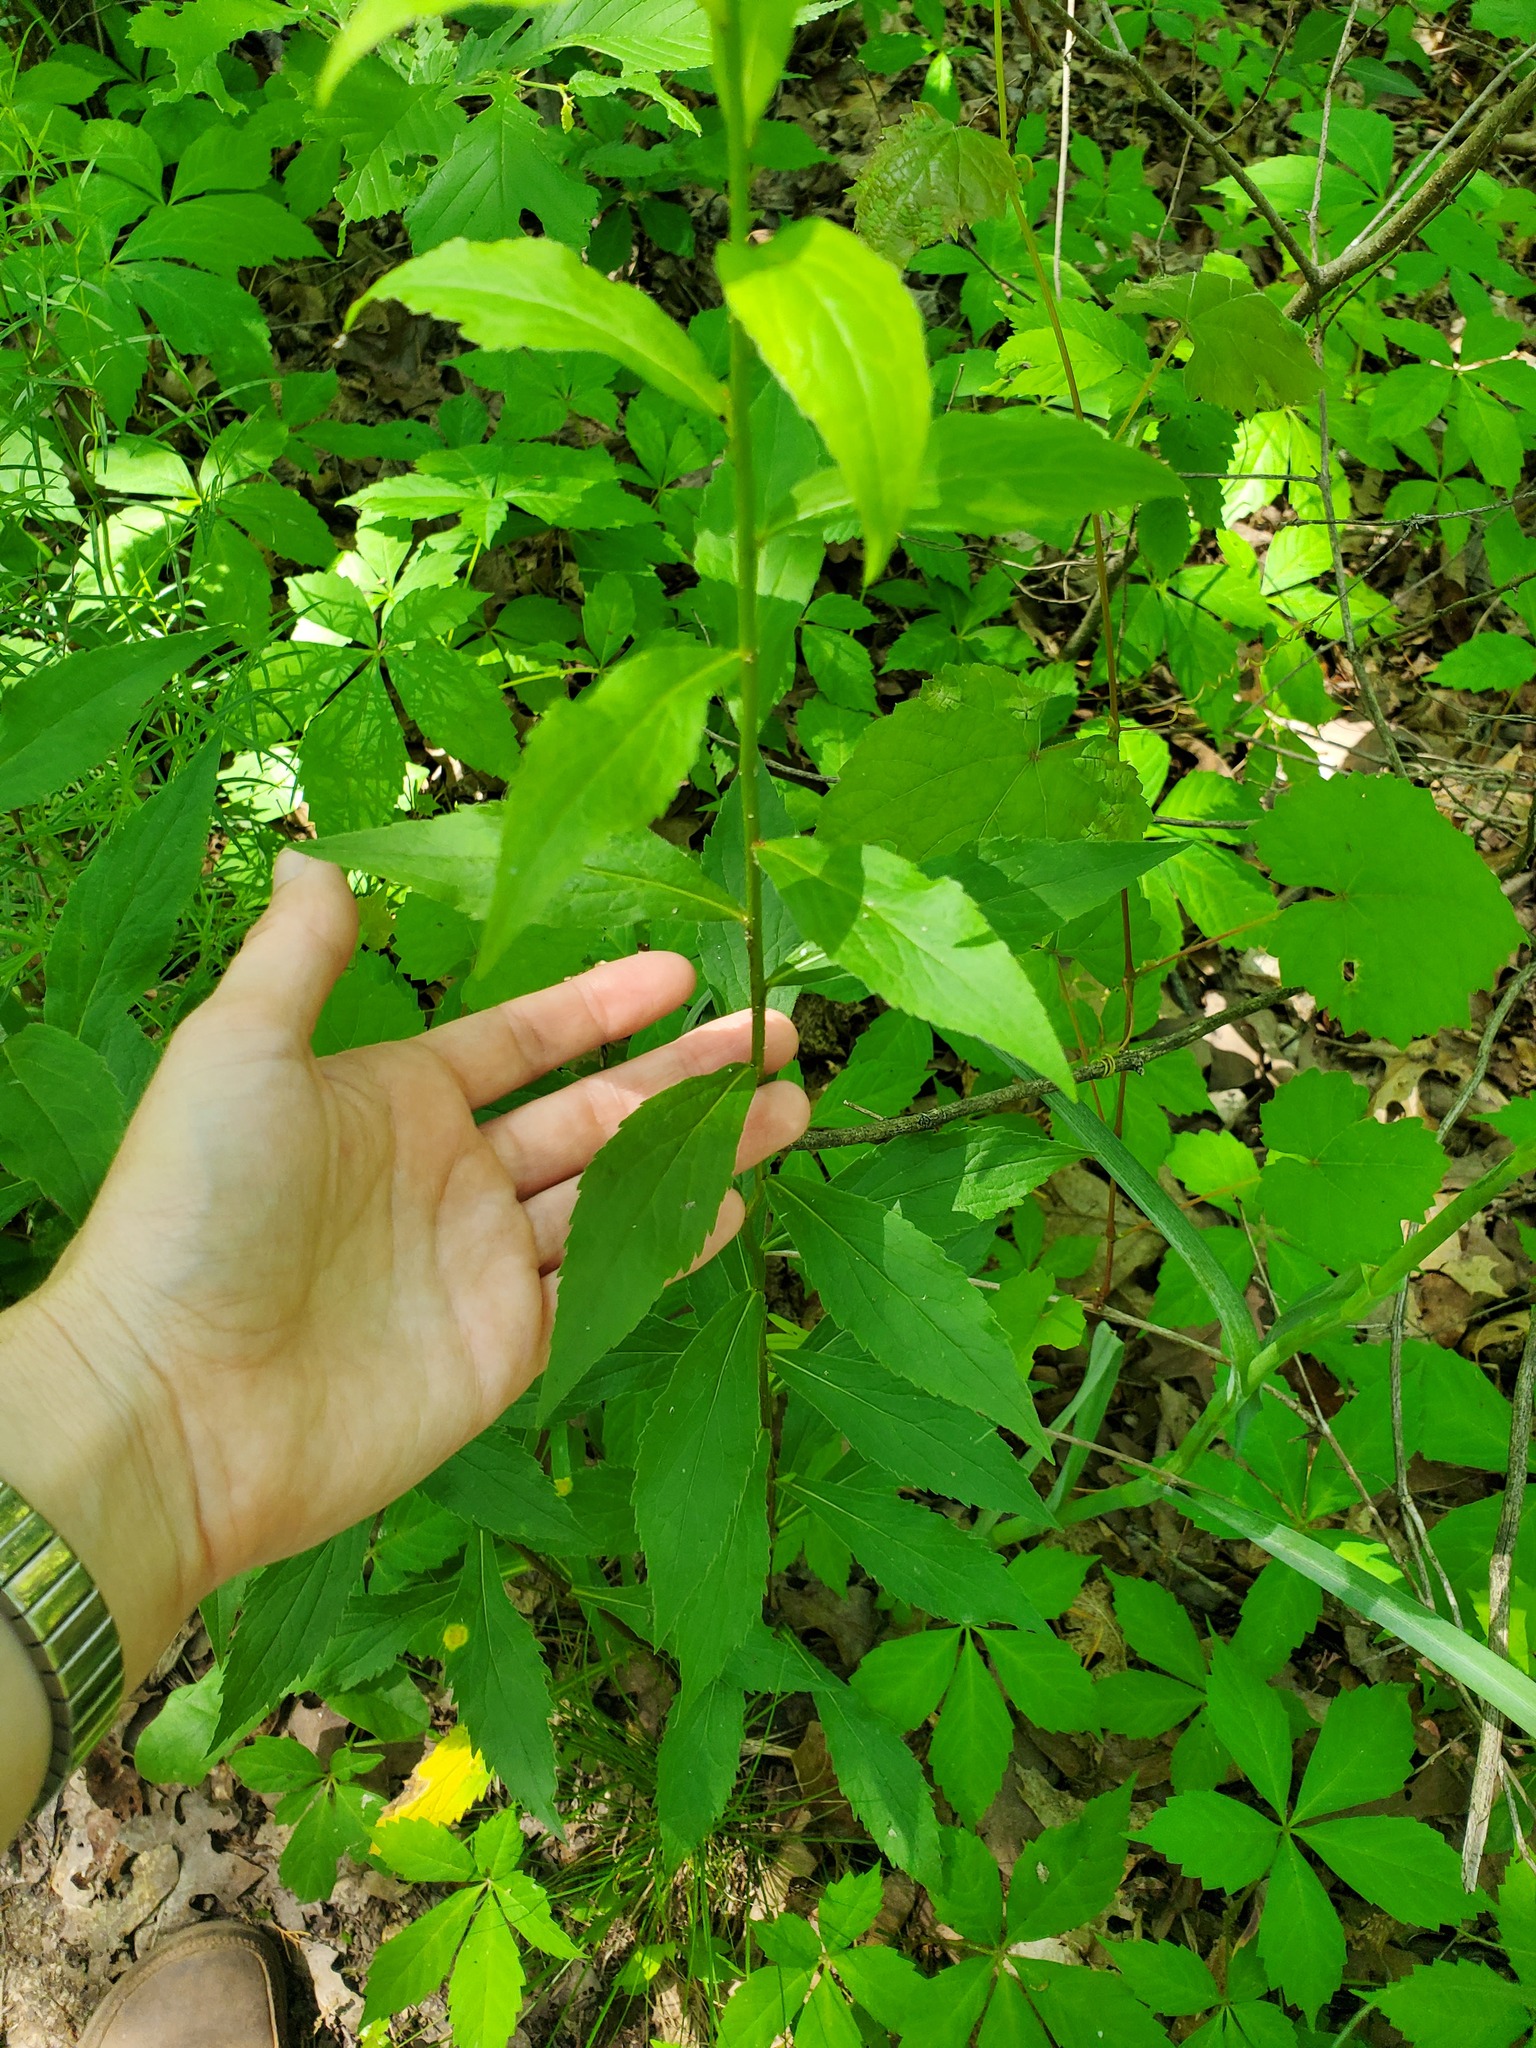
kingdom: Plantae
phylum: Tracheophyta
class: Magnoliopsida
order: Asterales
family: Asteraceae
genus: Solidago
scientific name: Solidago ulmifolia
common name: Elm-leaf goldenrod
